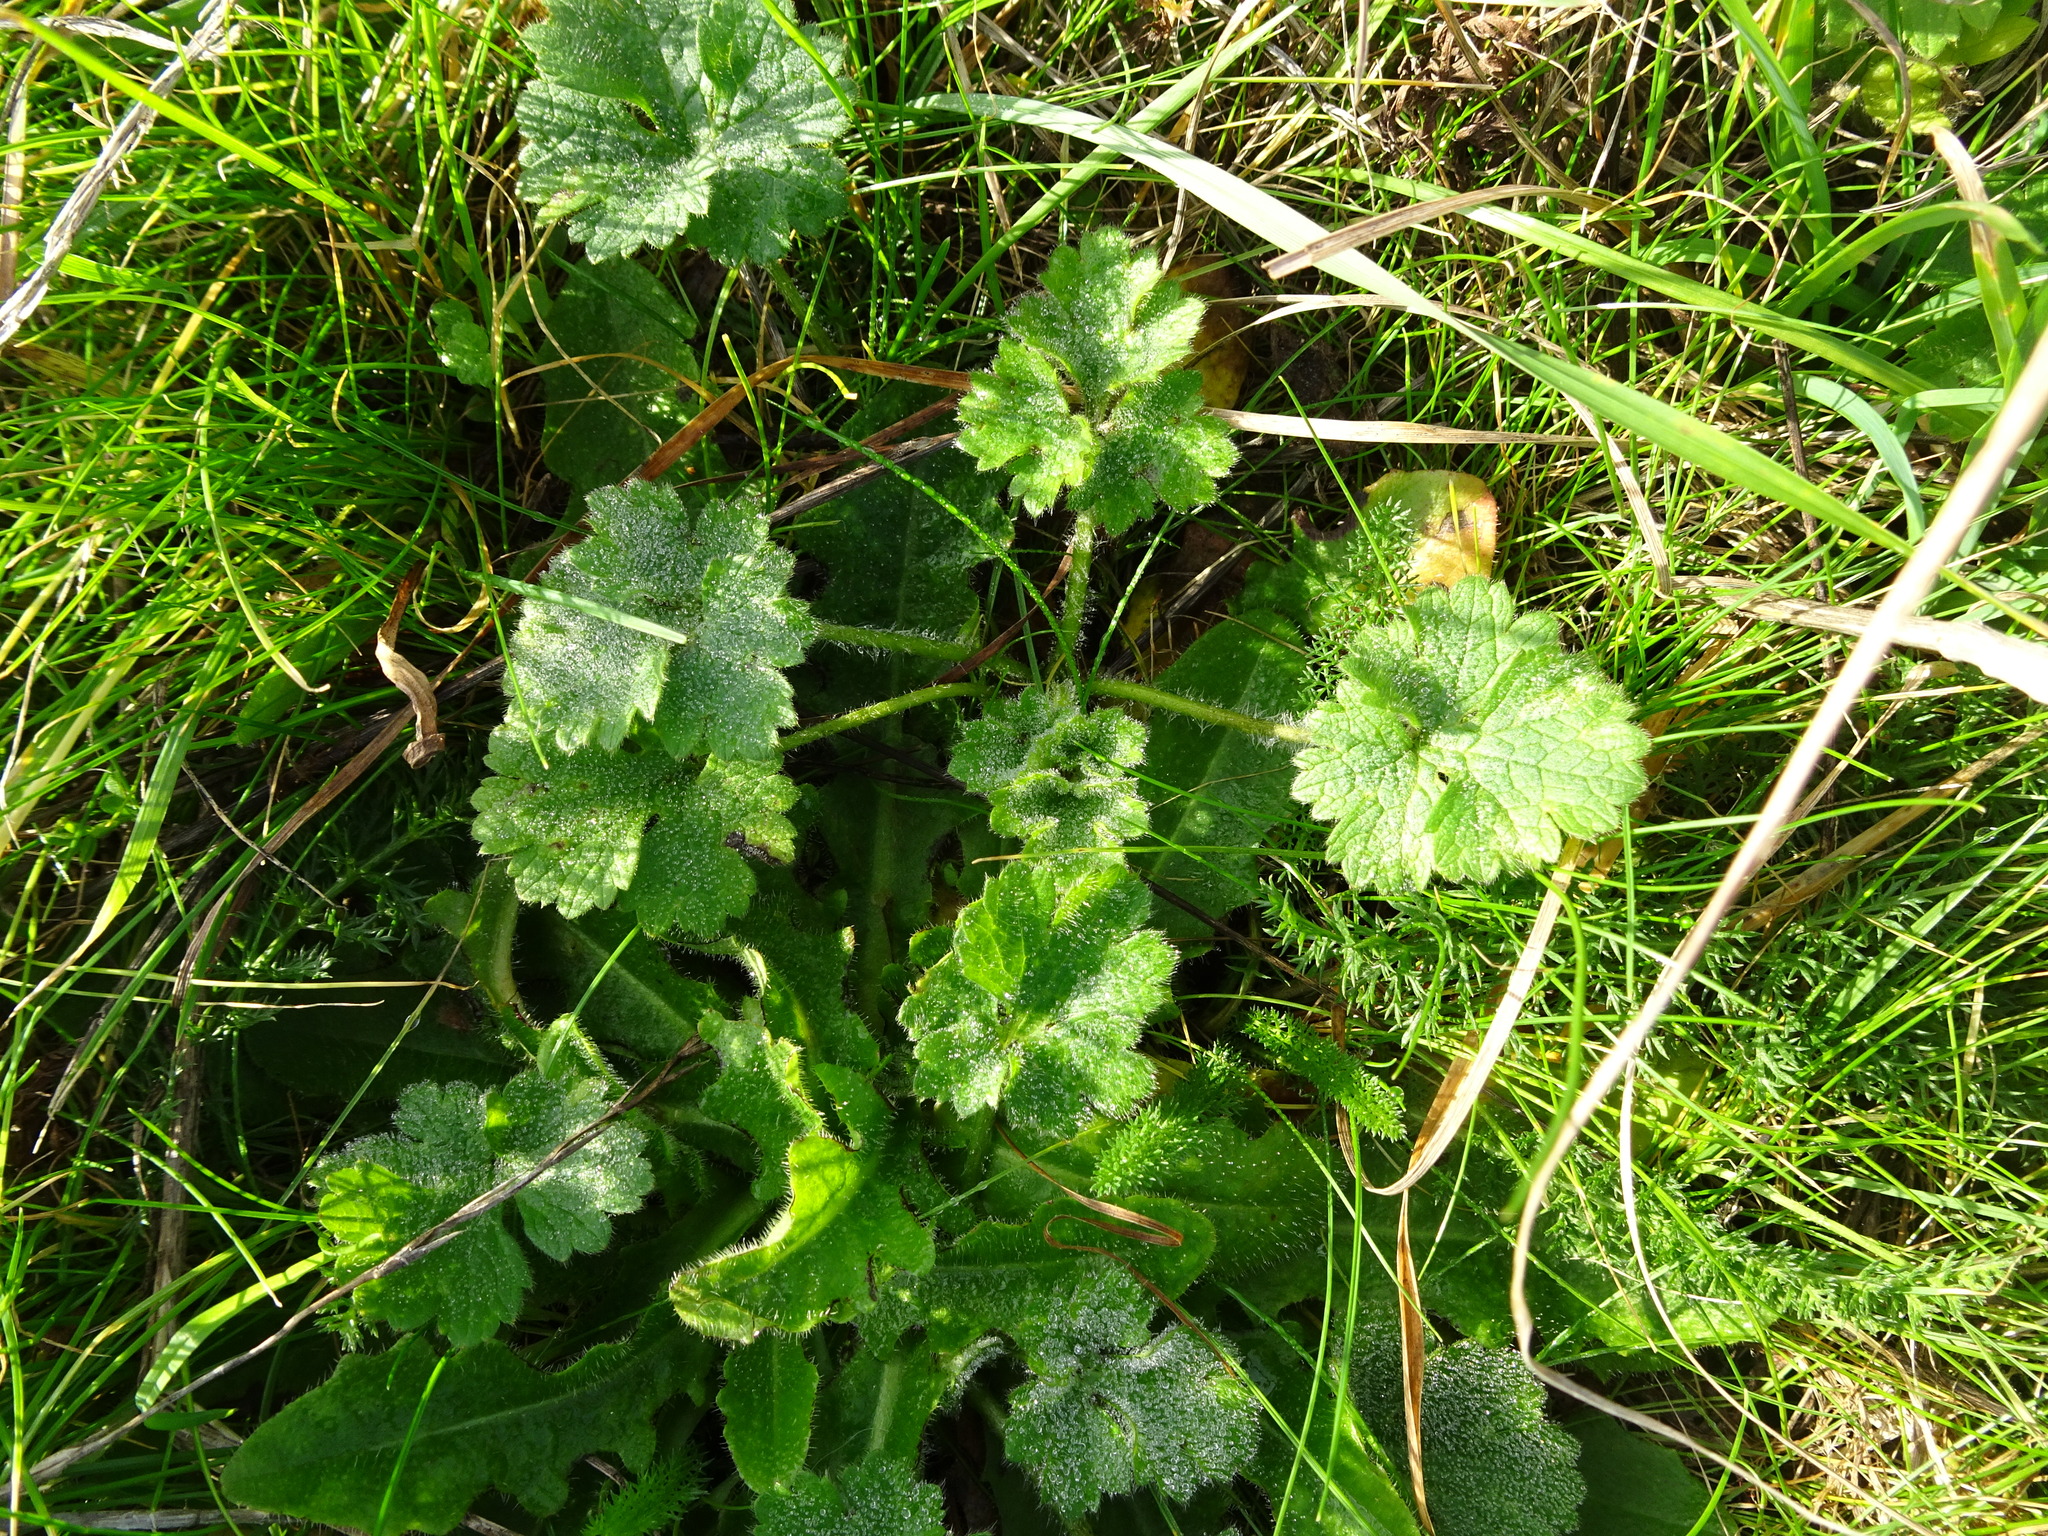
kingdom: Plantae
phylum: Tracheophyta
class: Magnoliopsida
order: Ranunculales
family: Ranunculaceae
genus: Ranunculus
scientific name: Ranunculus bulbosus
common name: Bulbous buttercup
